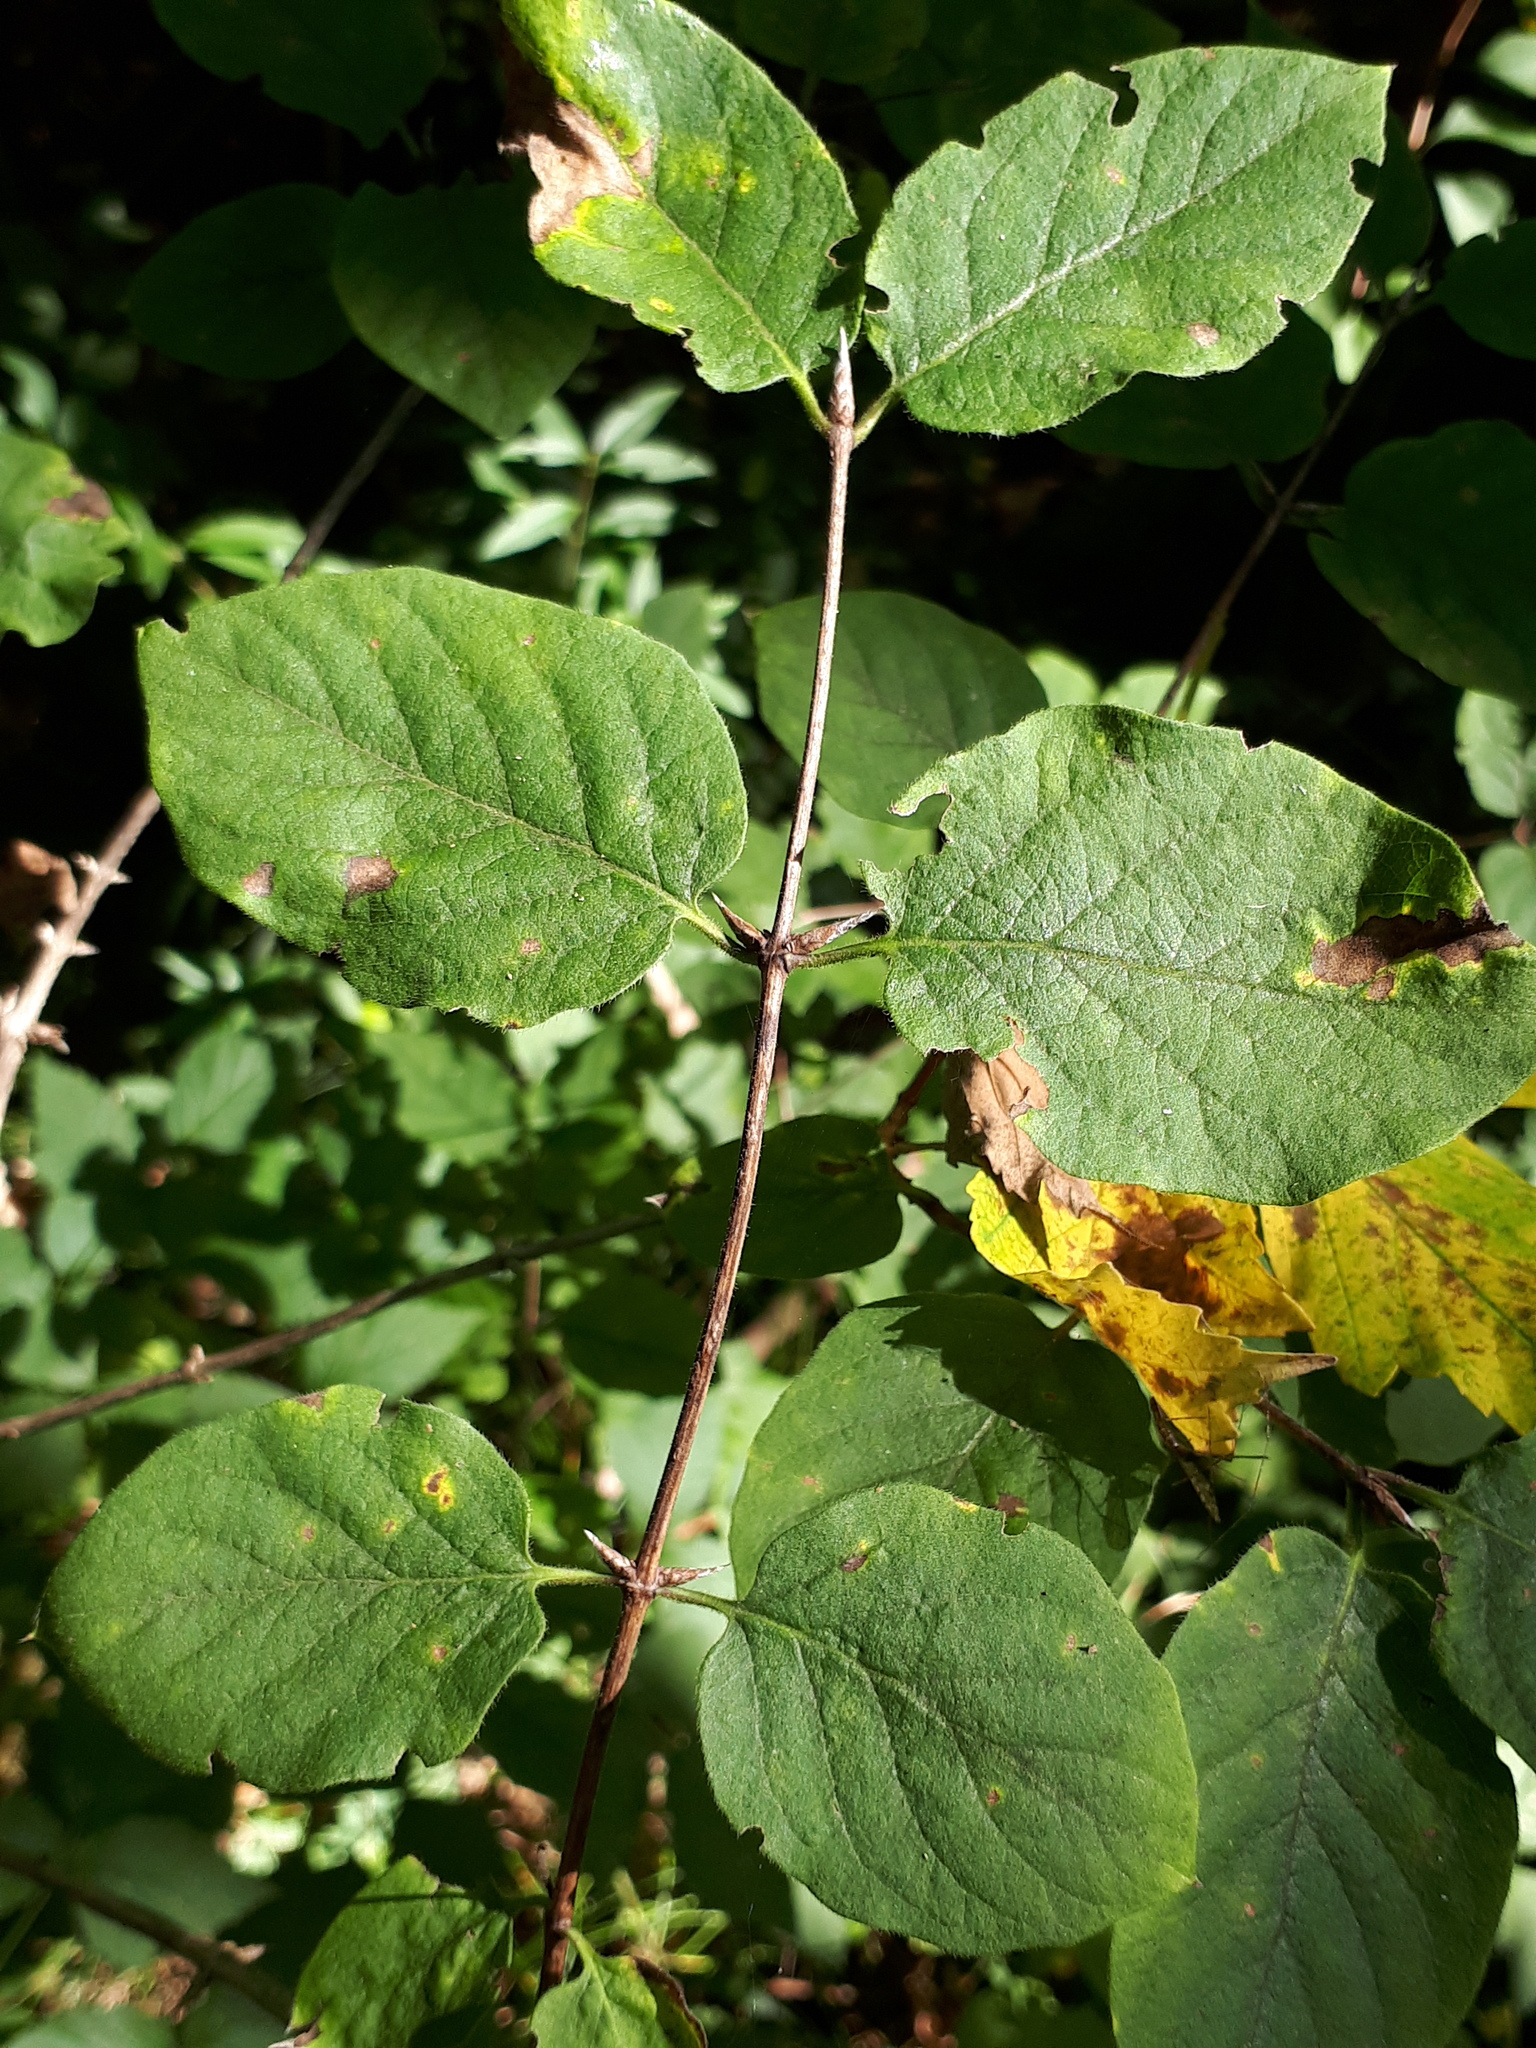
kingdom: Plantae
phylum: Tracheophyta
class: Magnoliopsida
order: Dipsacales
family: Caprifoliaceae
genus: Lonicera
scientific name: Lonicera xylosteum
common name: Fly honeysuckle
